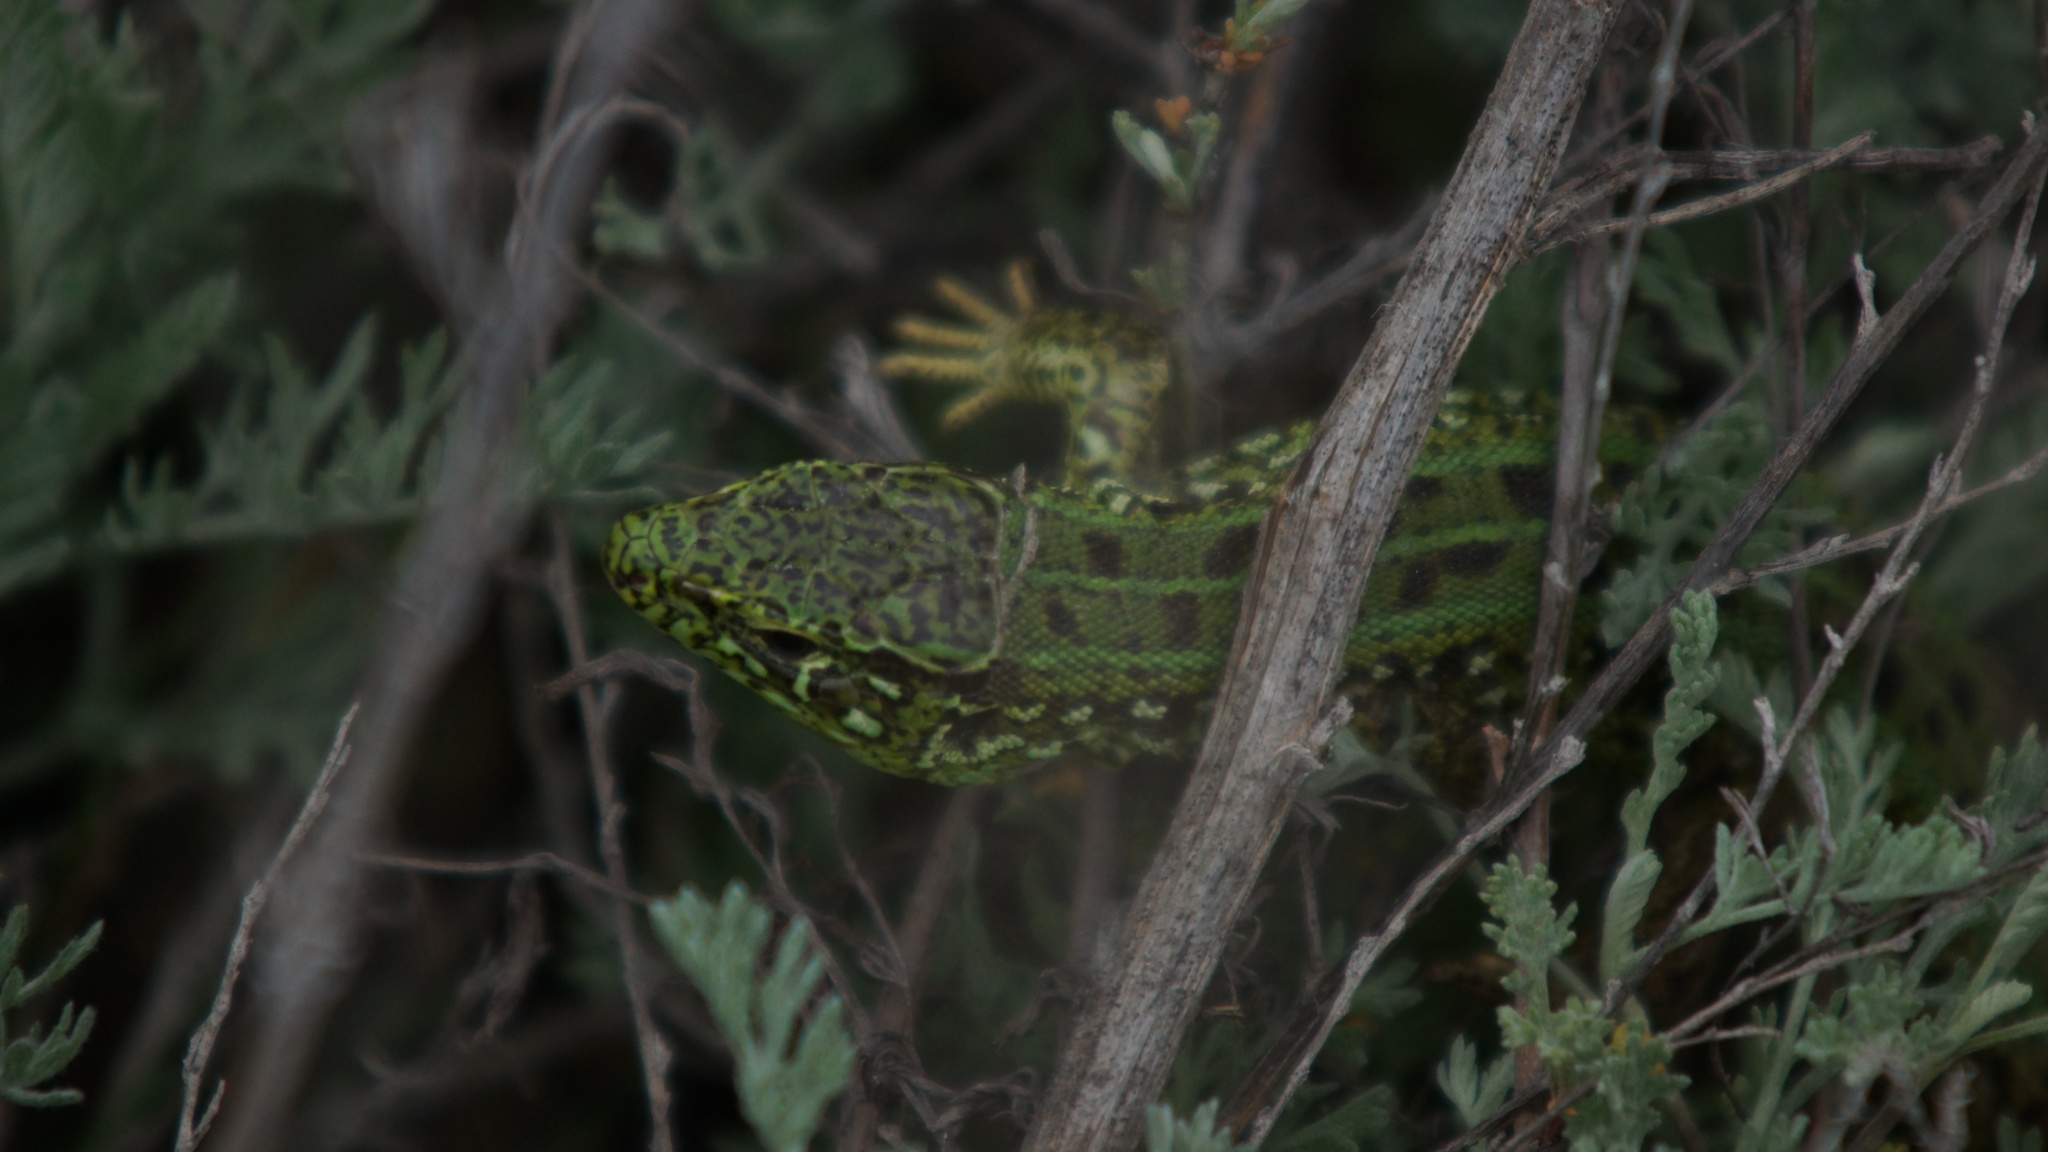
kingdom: Animalia
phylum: Chordata
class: Squamata
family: Lacertidae
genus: Lacerta
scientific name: Lacerta agilis
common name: Sand lizard
